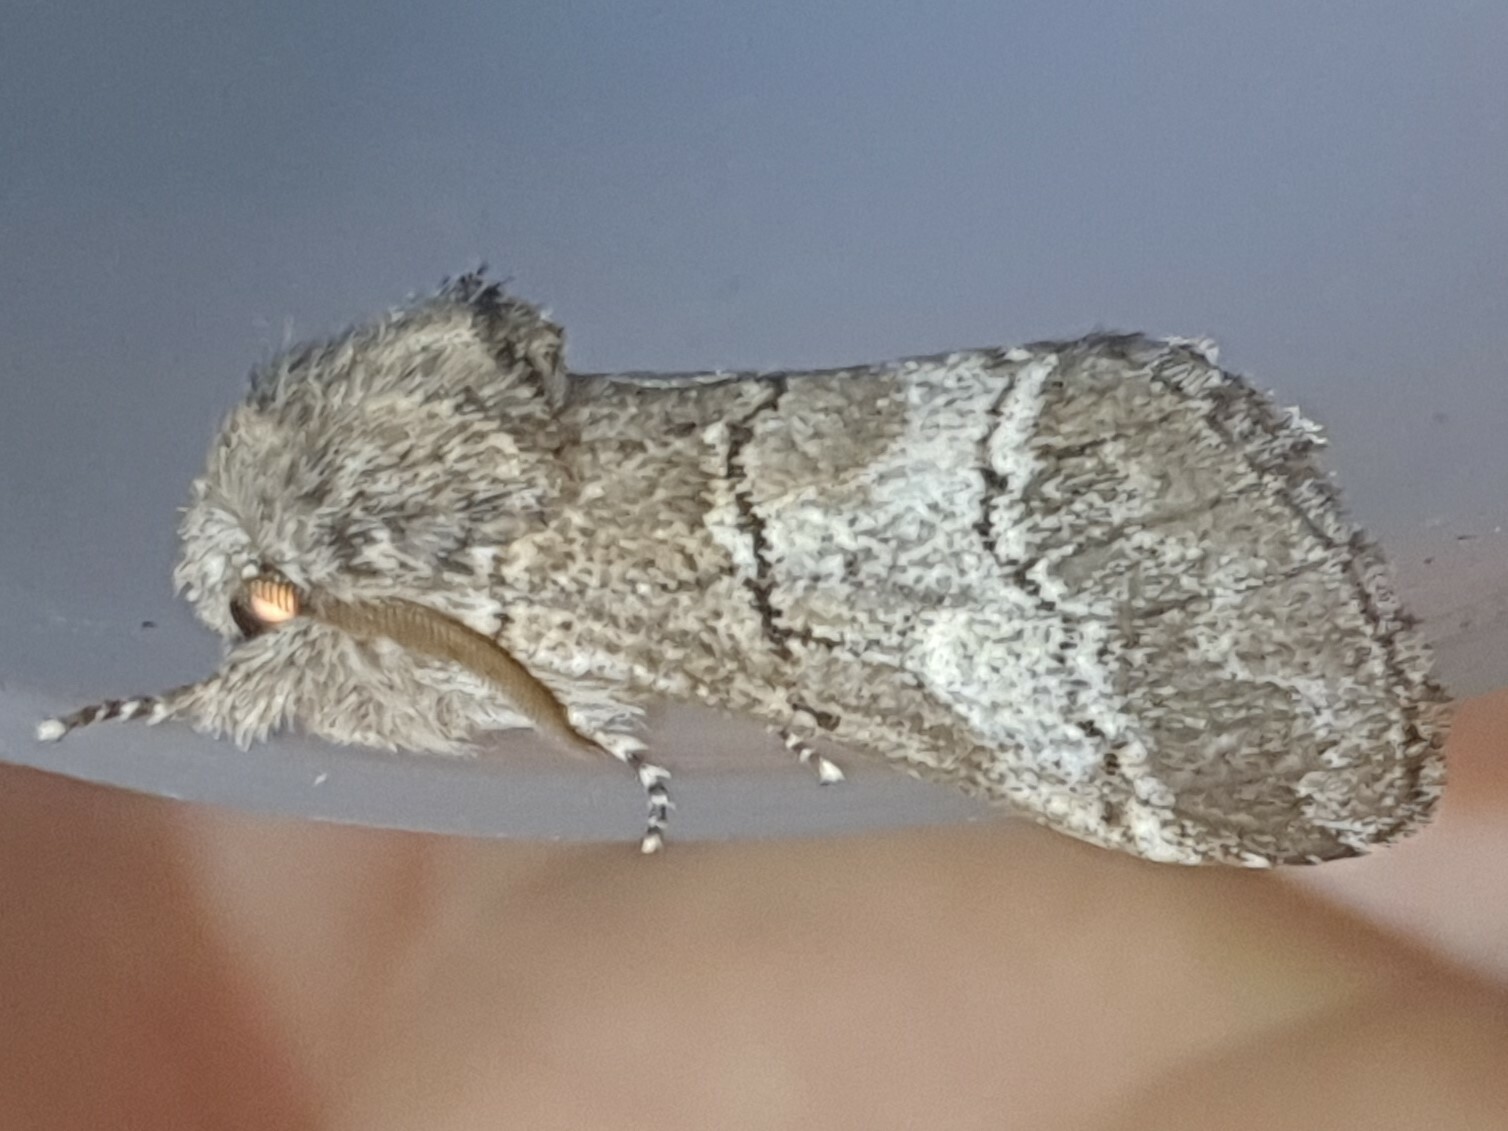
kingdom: Animalia
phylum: Arthropoda
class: Insecta
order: Lepidoptera
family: Notodontidae
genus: Drymonia
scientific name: Drymonia querna
